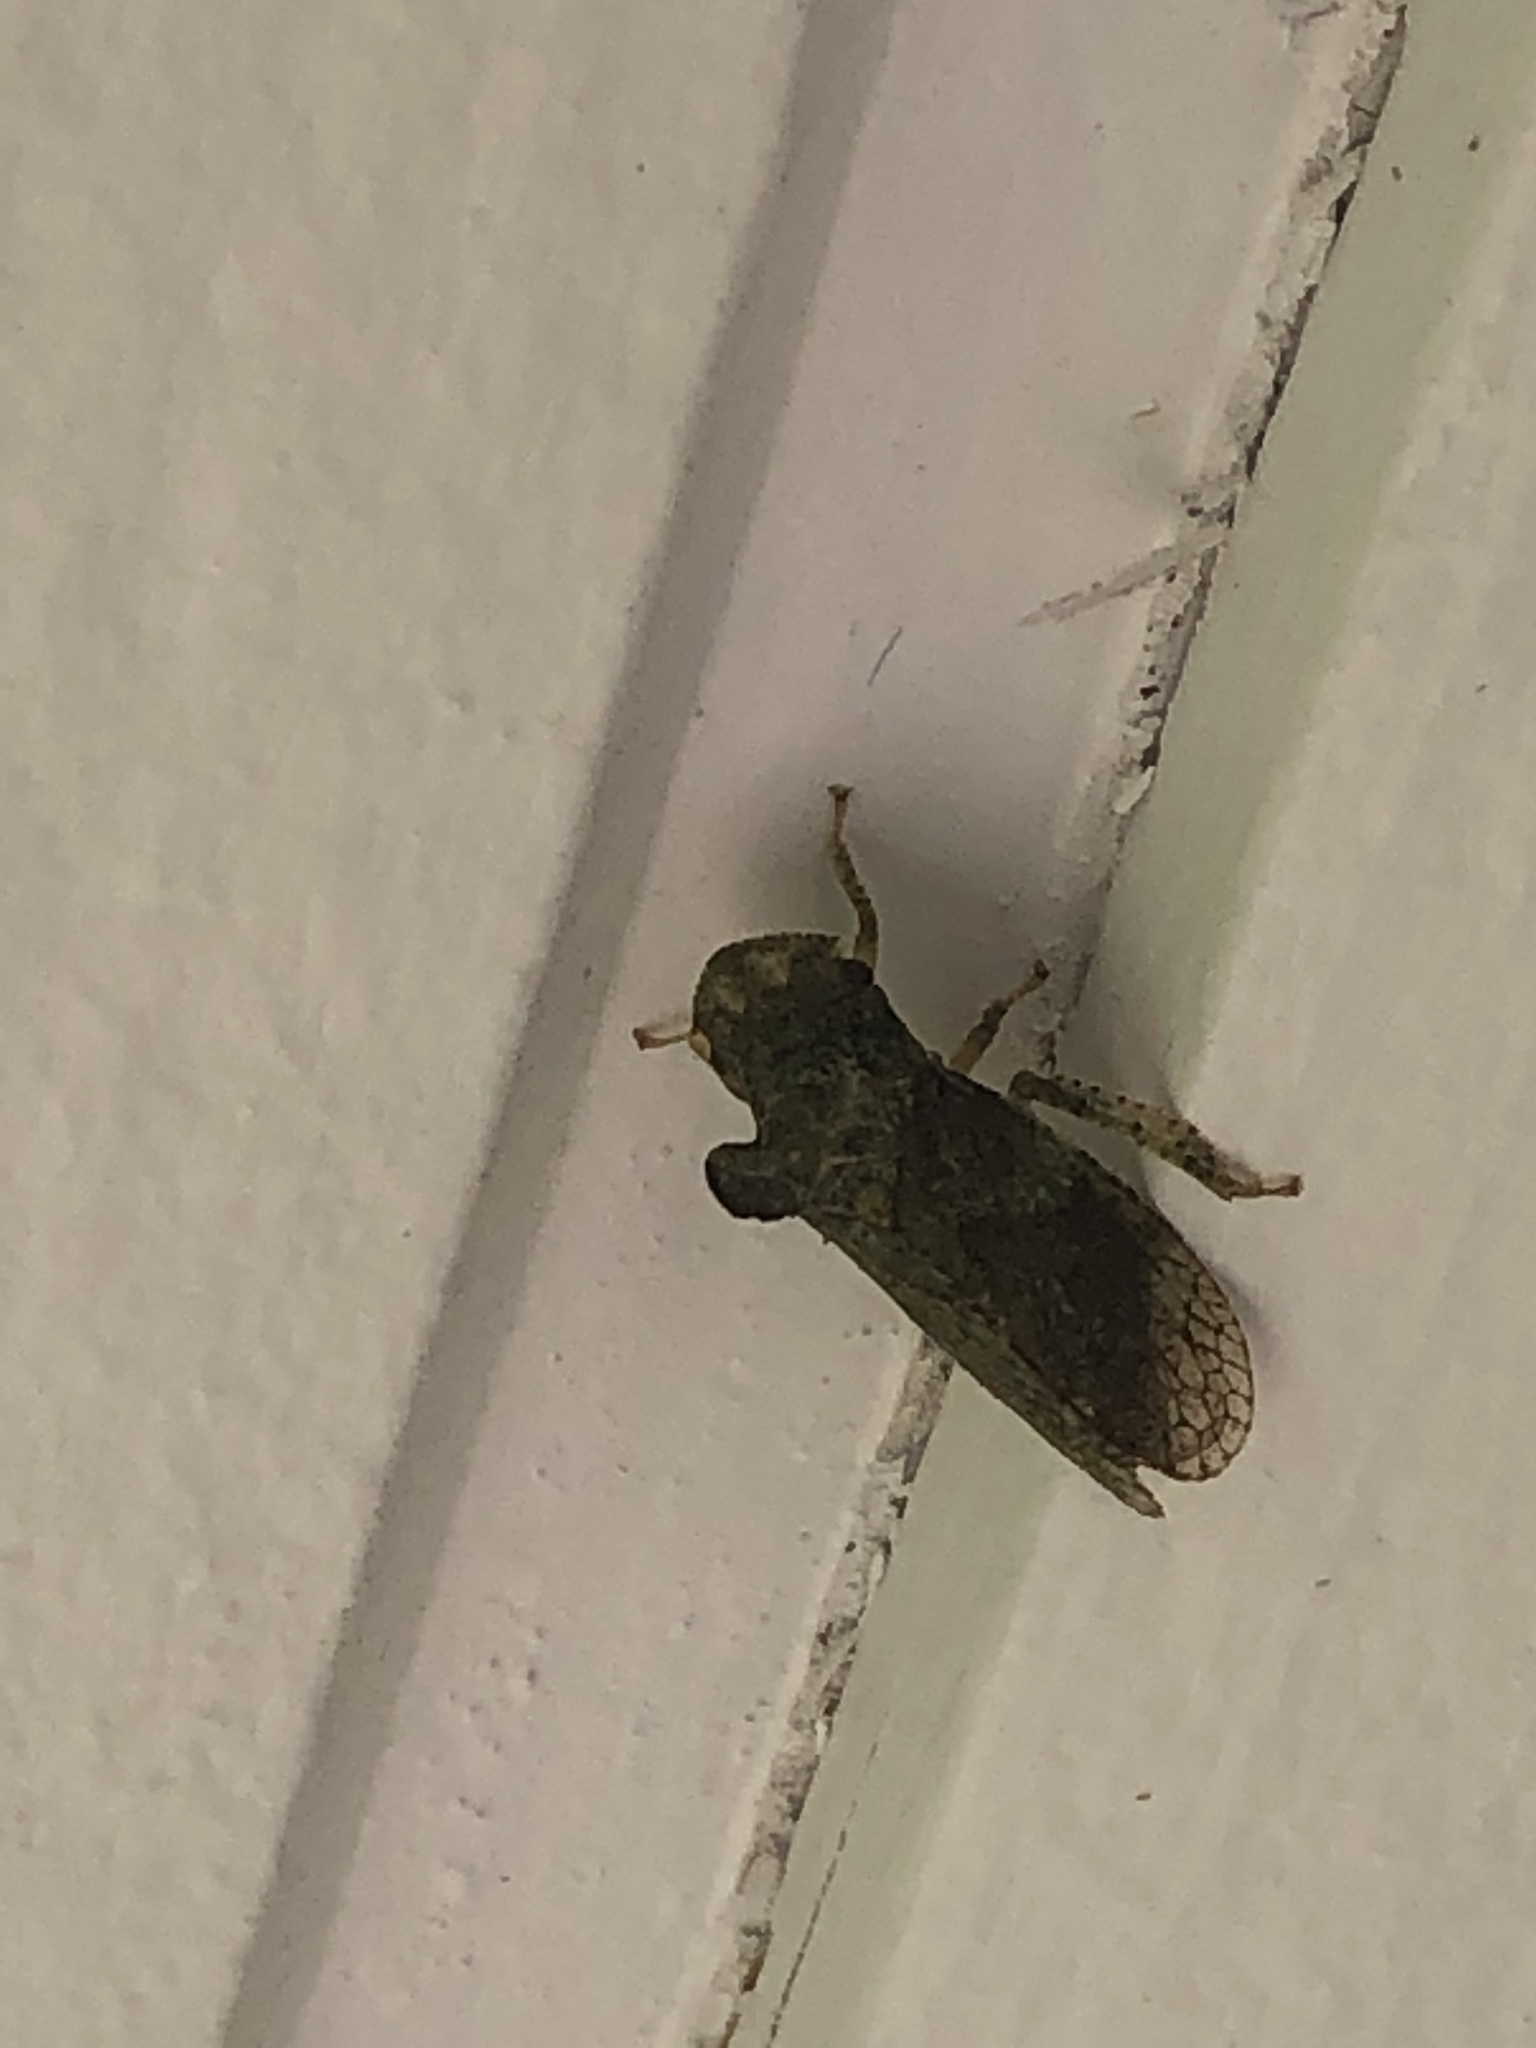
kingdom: Animalia
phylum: Arthropoda
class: Insecta
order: Hemiptera
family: Cicadellidae
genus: Ledra
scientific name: Ledra aurita
